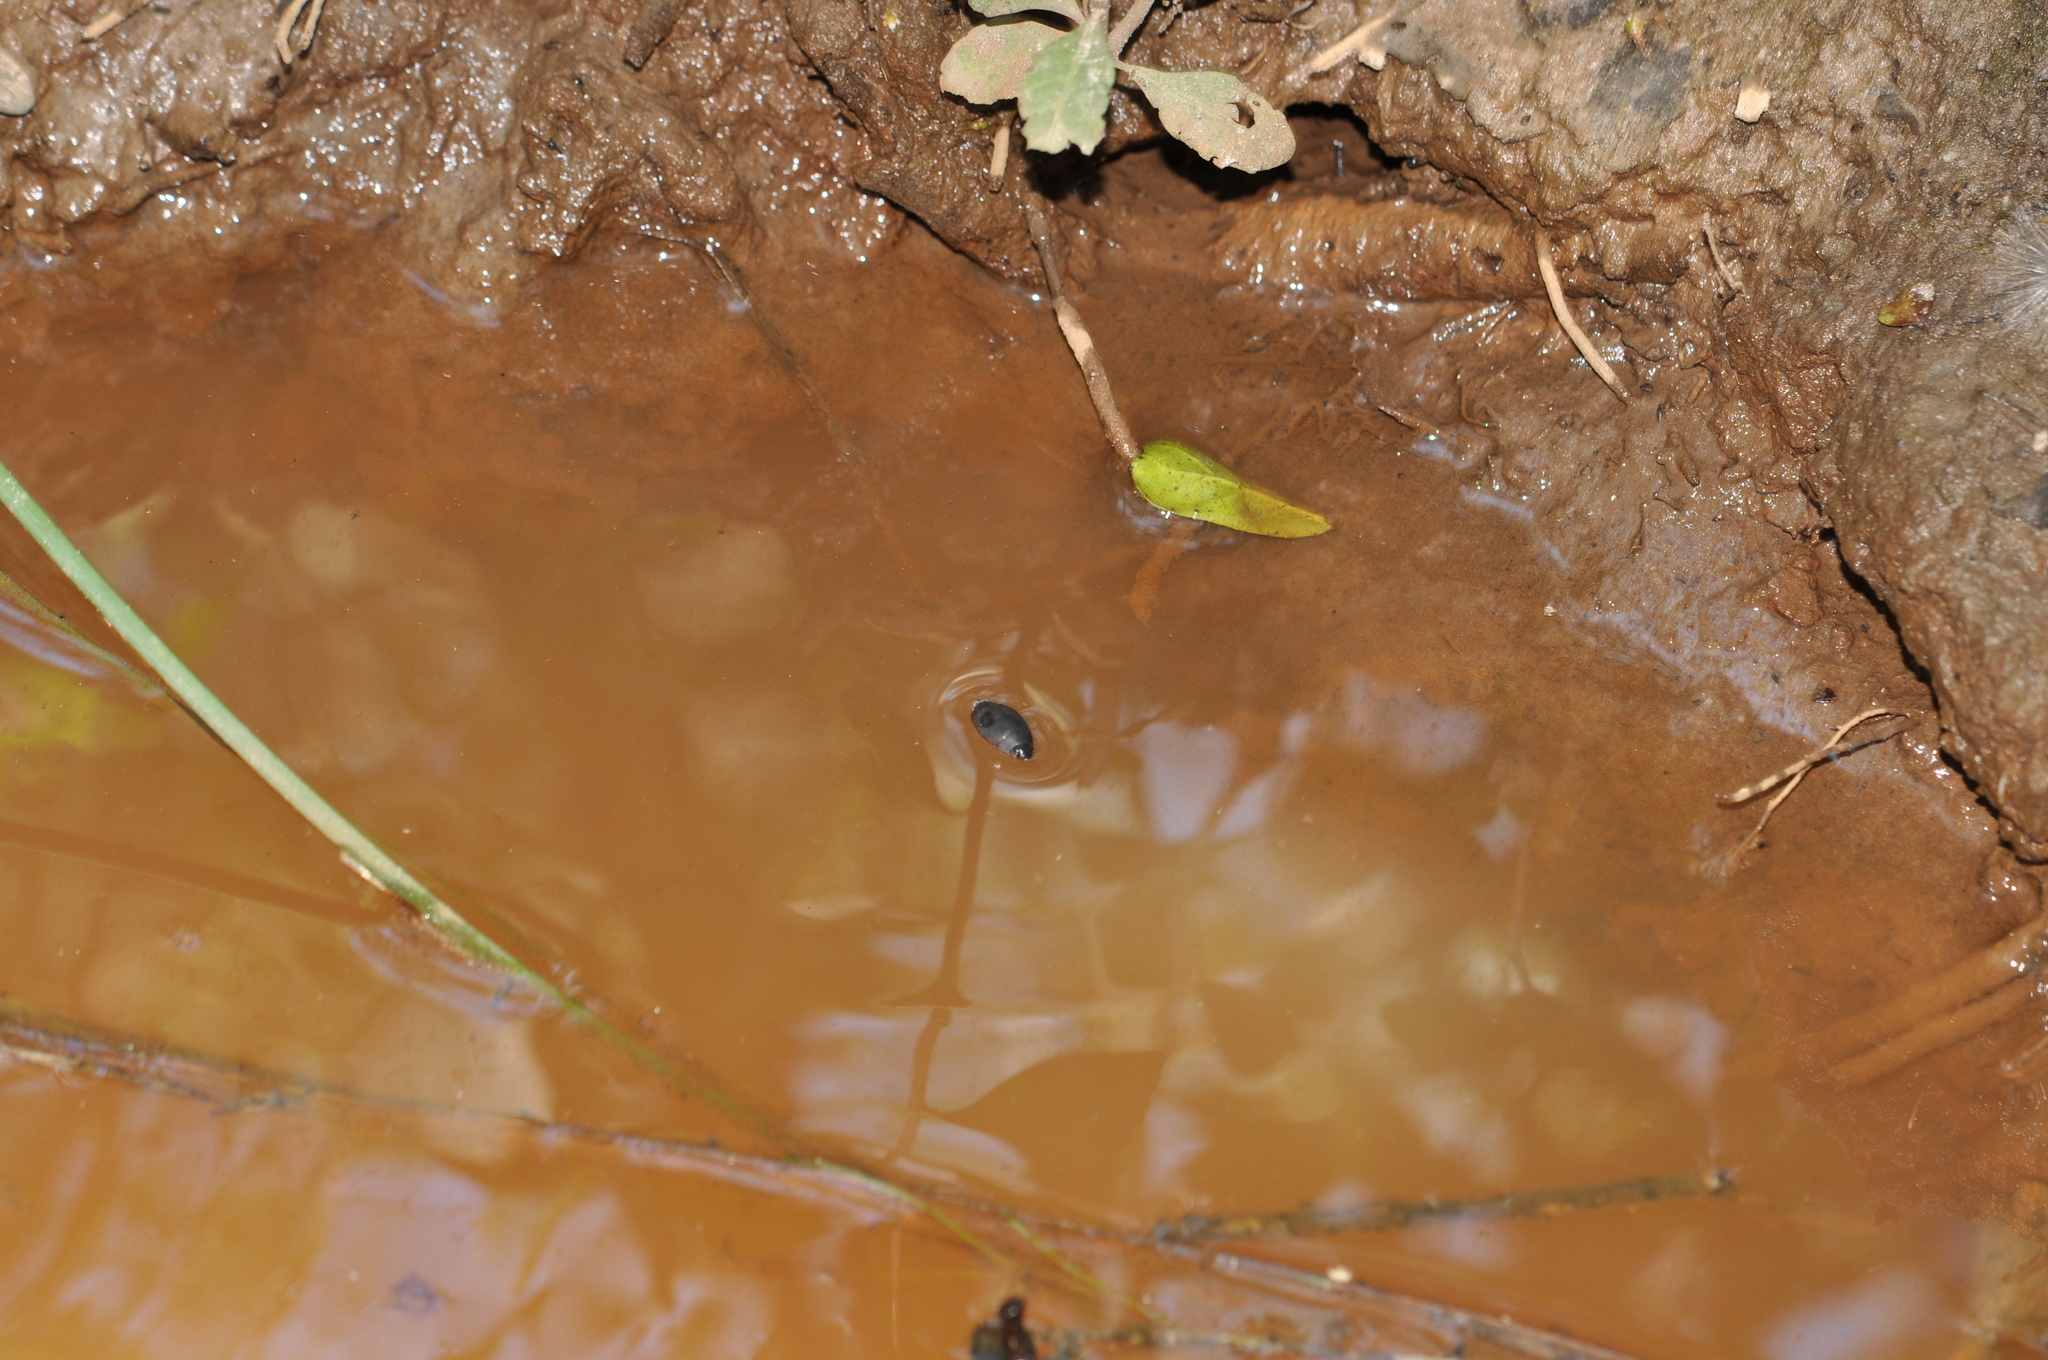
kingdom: Animalia
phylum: Arthropoda
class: Insecta
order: Coleoptera
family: Gyrinidae
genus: Dineutus
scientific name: Dineutus
